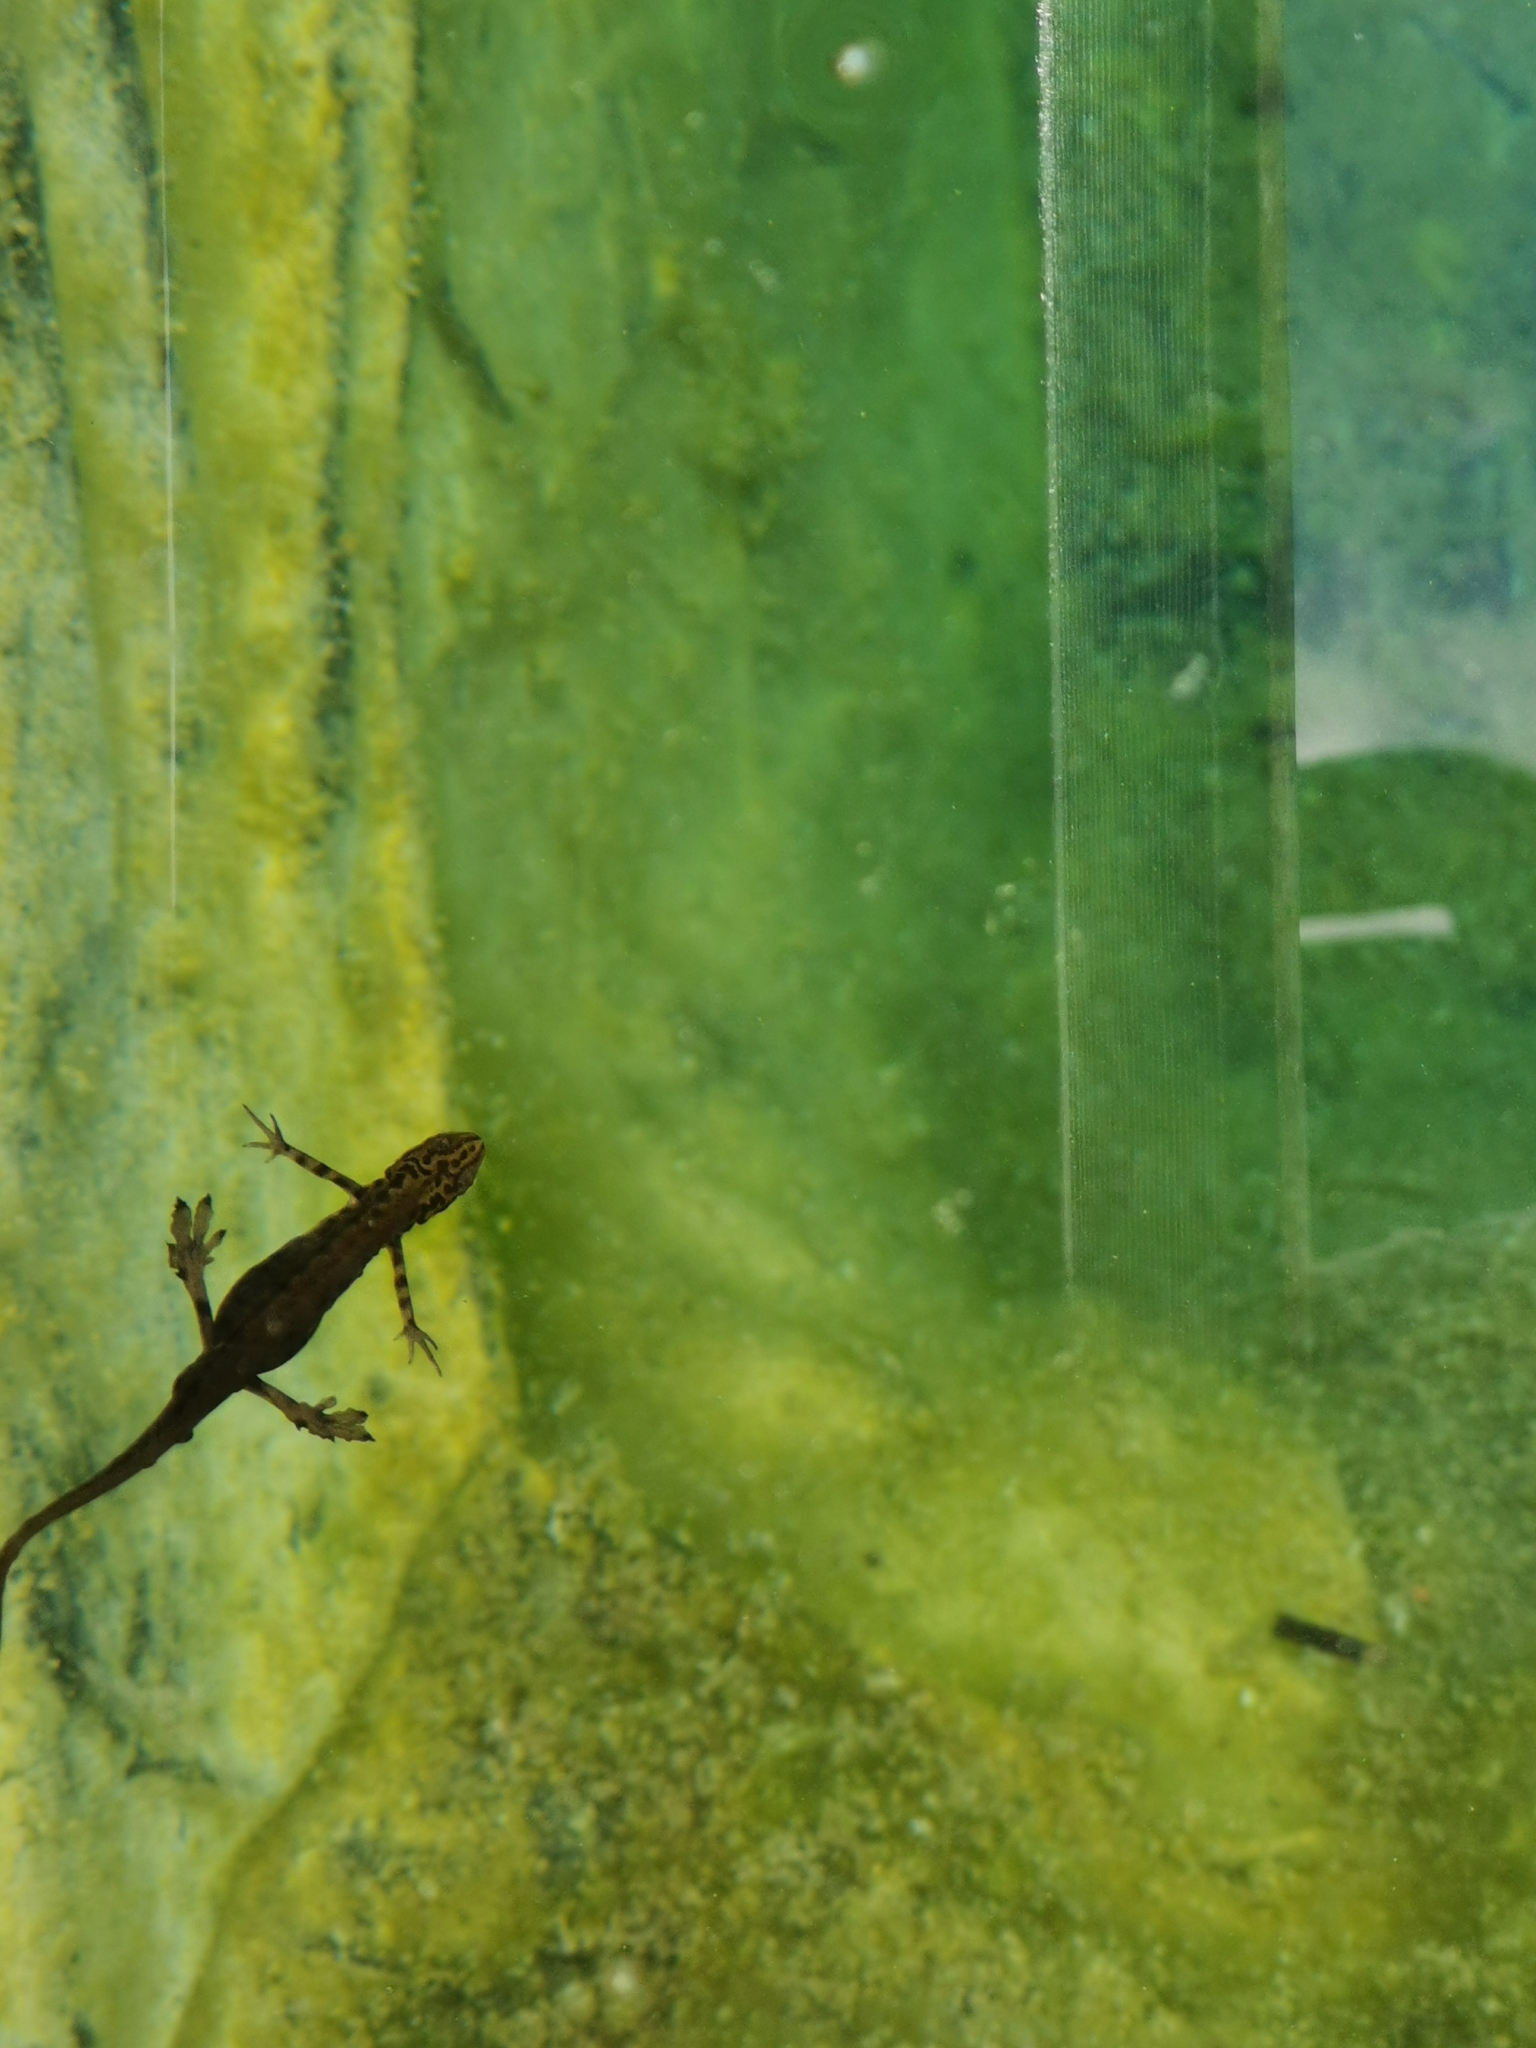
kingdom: Animalia
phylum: Chordata
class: Amphibia
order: Caudata
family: Salamandridae
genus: Lissotriton
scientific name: Lissotriton vulgaris
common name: Smooth newt
